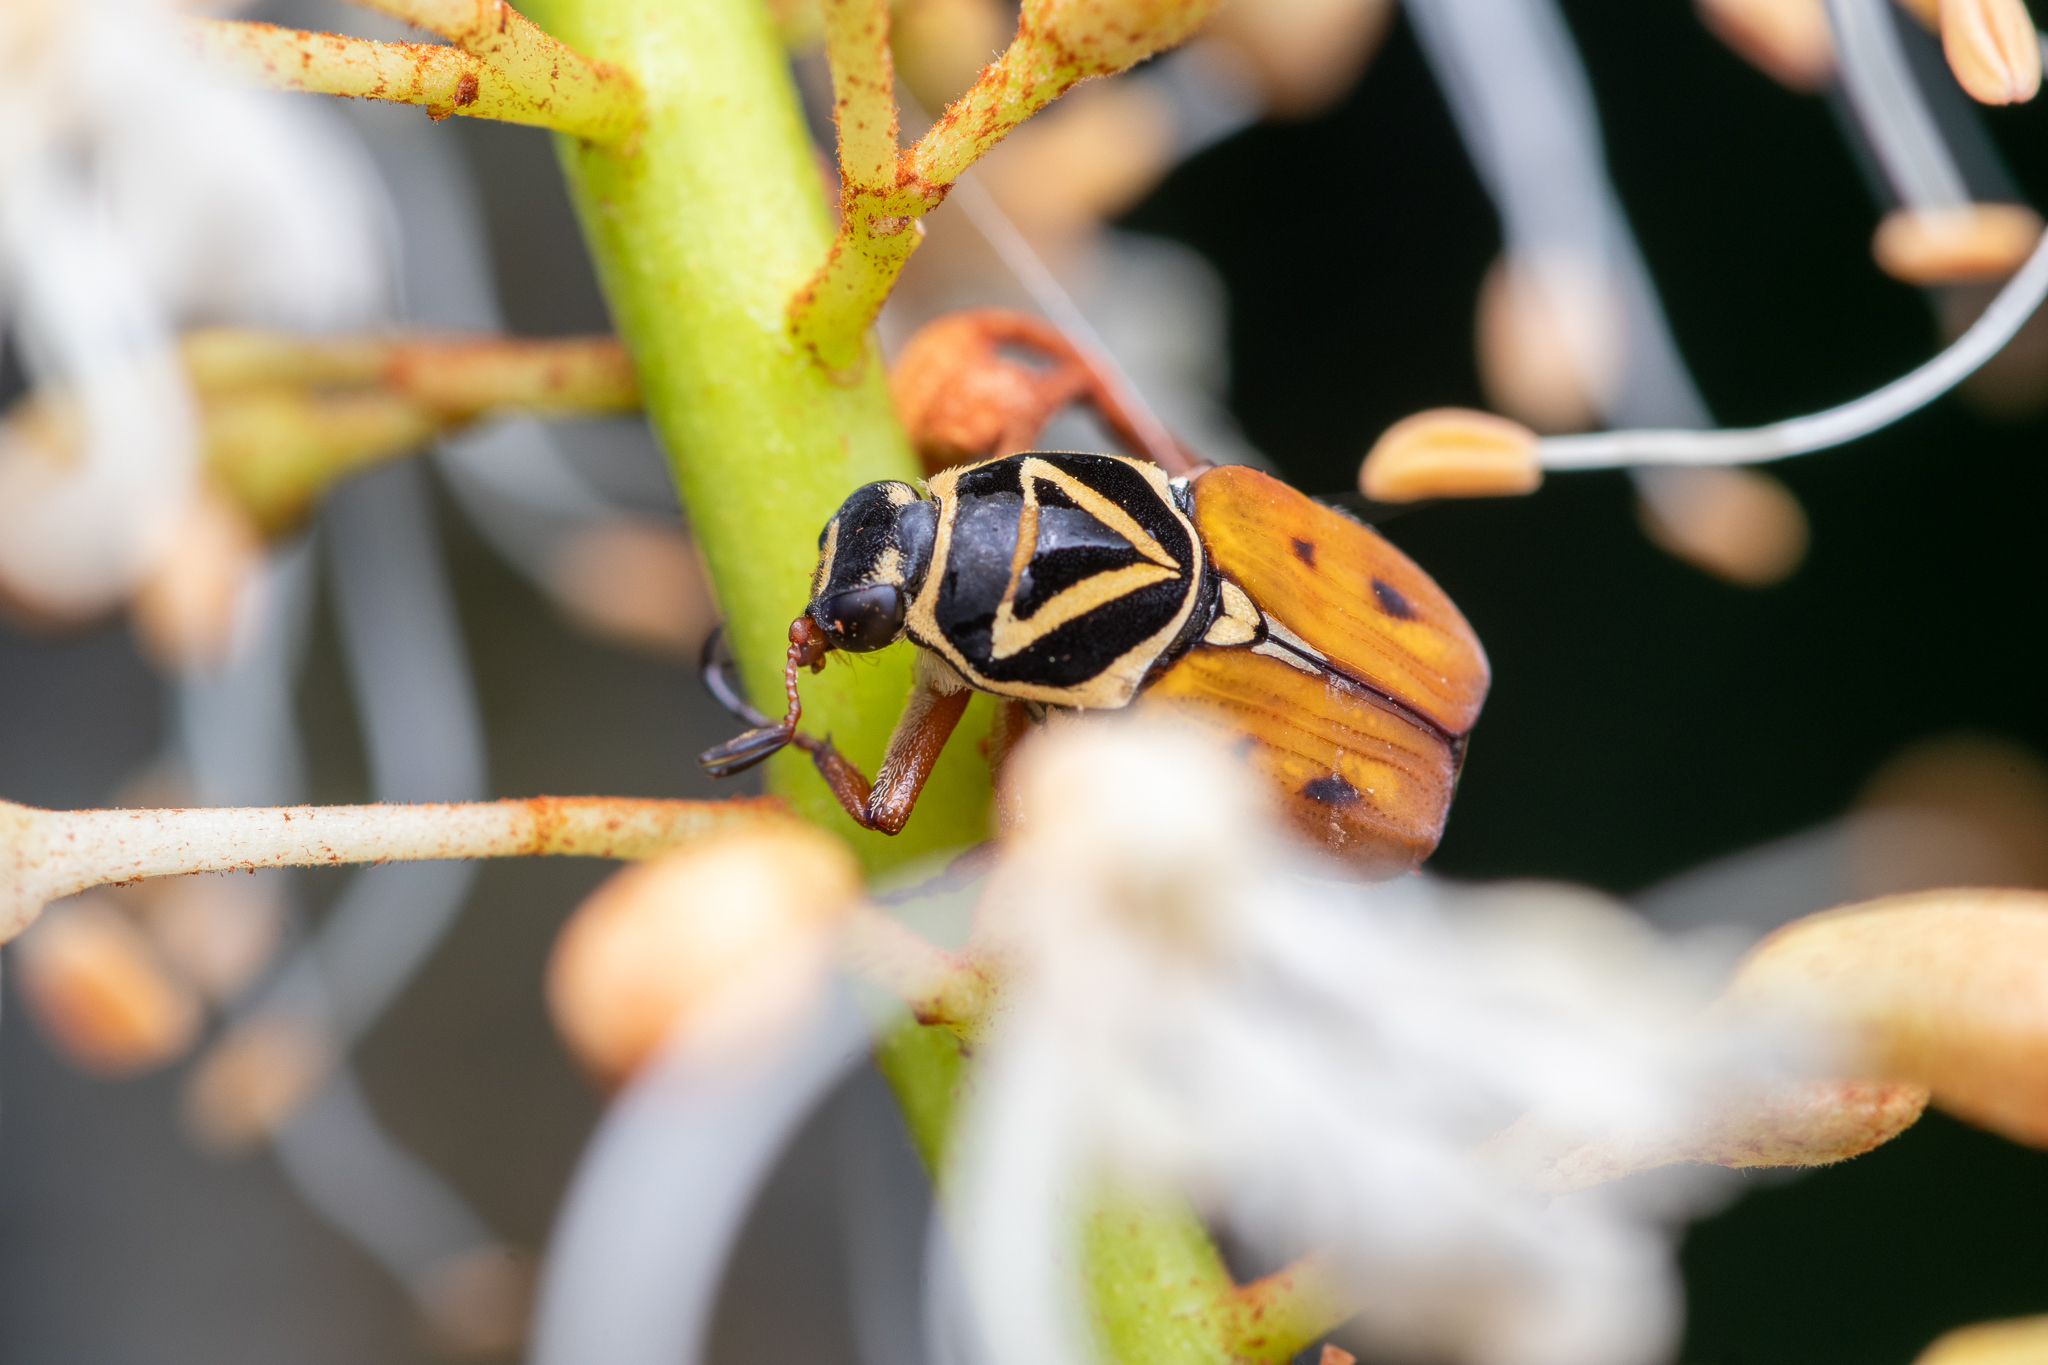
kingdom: Animalia
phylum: Arthropoda
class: Insecta
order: Coleoptera
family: Scarabaeidae
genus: Trigonopeltastes
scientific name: Trigonopeltastes delta
